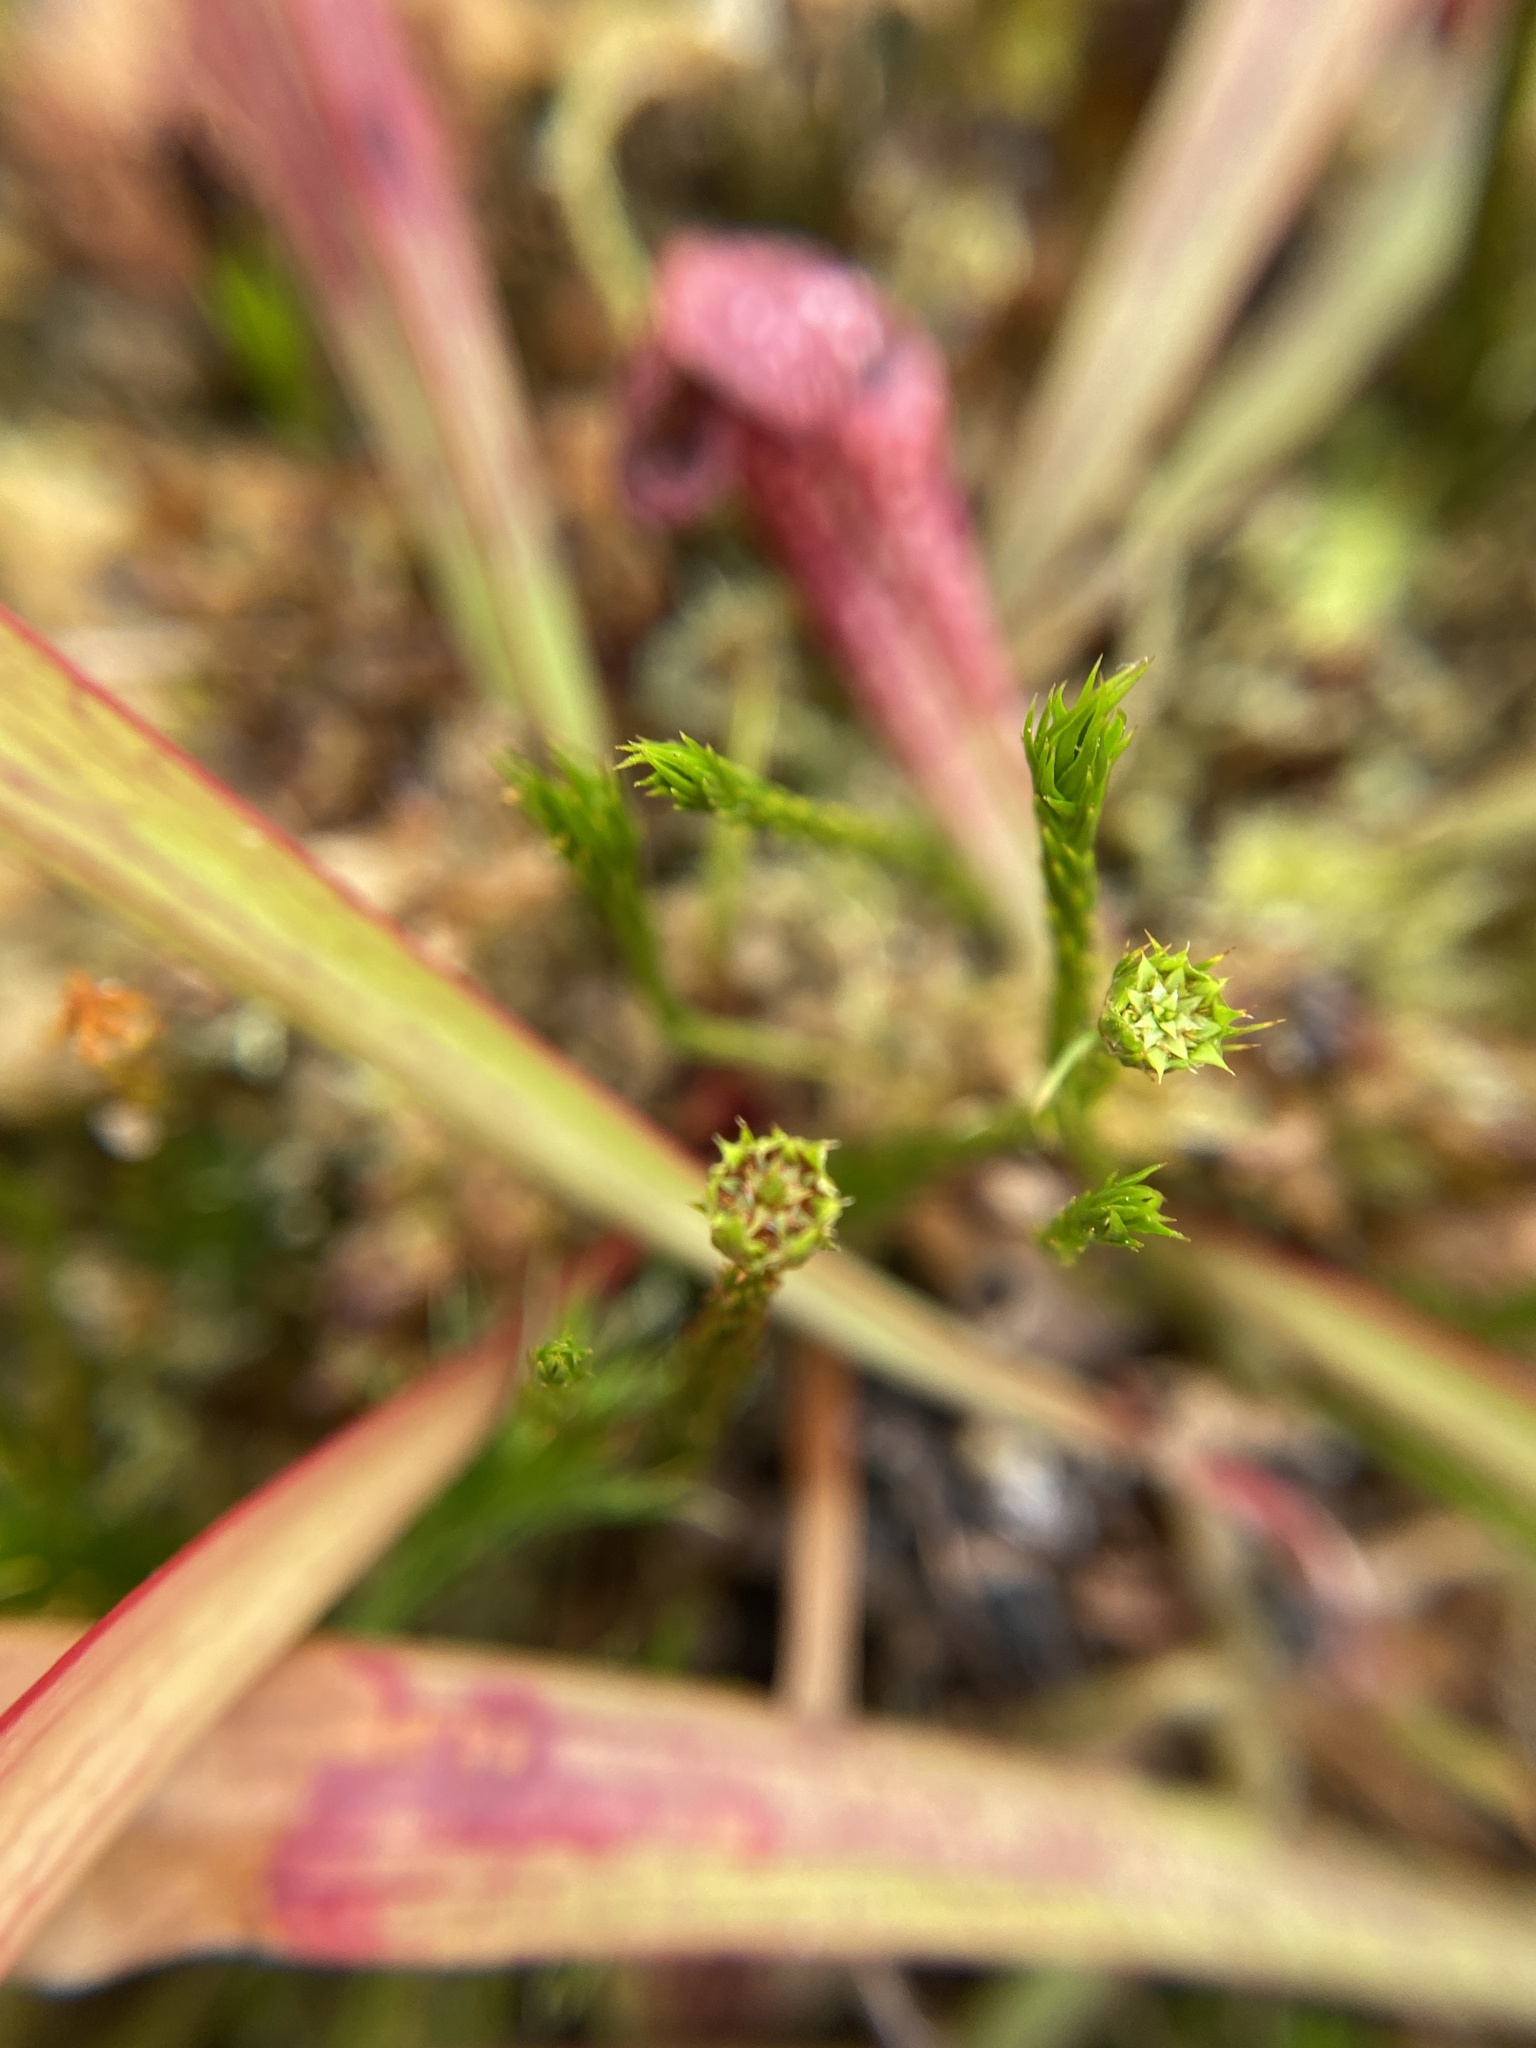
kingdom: Plantae
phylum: Bryophyta
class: Polytrichopsida
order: Polytrichales
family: Polytrichaceae
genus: Polytrichum
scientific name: Polytrichum pallidisetum
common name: Eastern haircap moss
